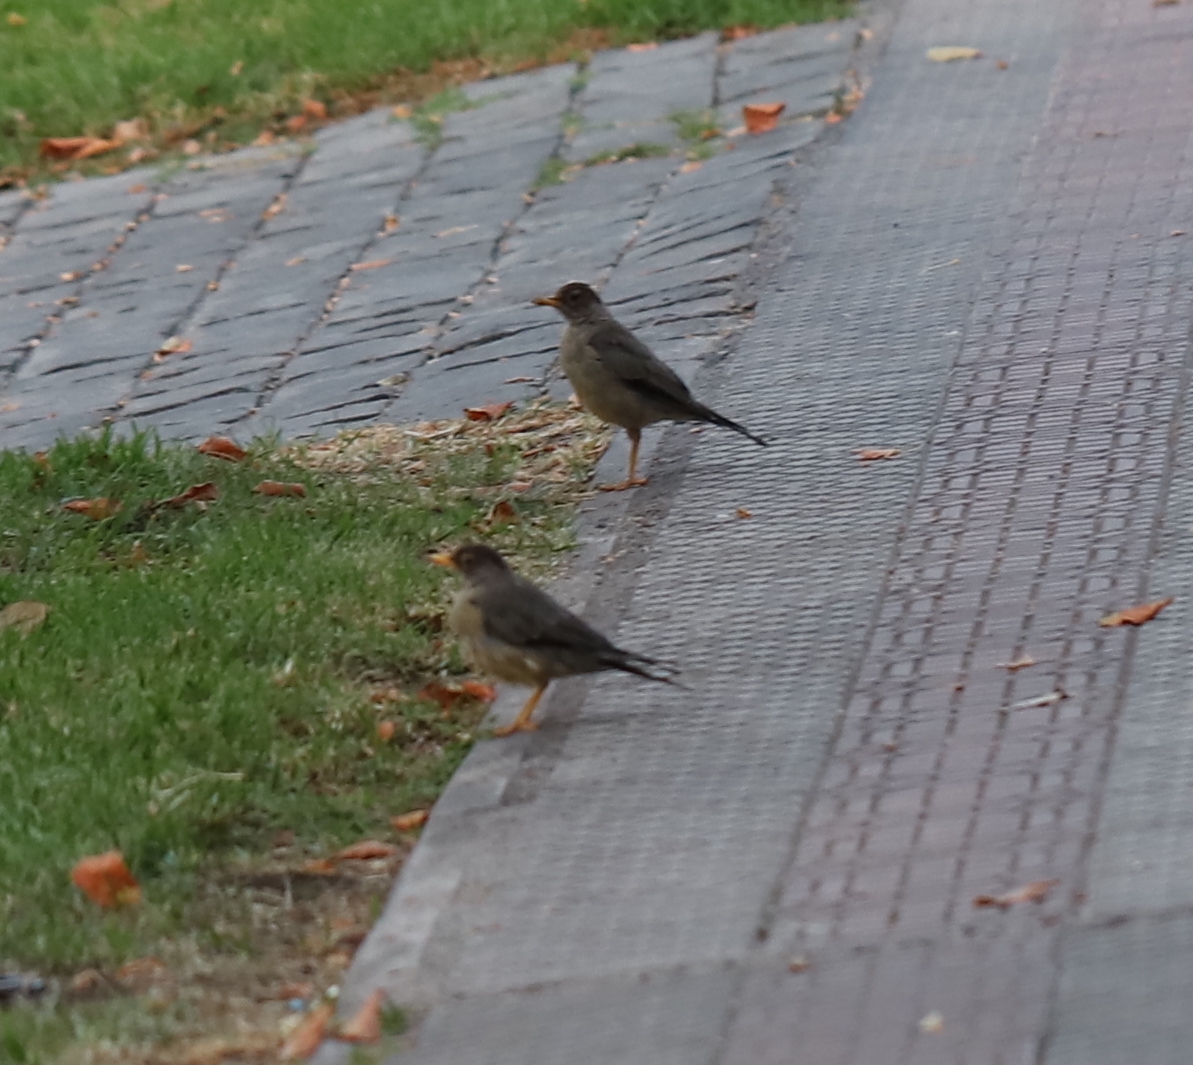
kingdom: Animalia
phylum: Chordata
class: Aves
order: Passeriformes
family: Turdidae
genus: Turdus
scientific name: Turdus falcklandii
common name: Austral thrush
